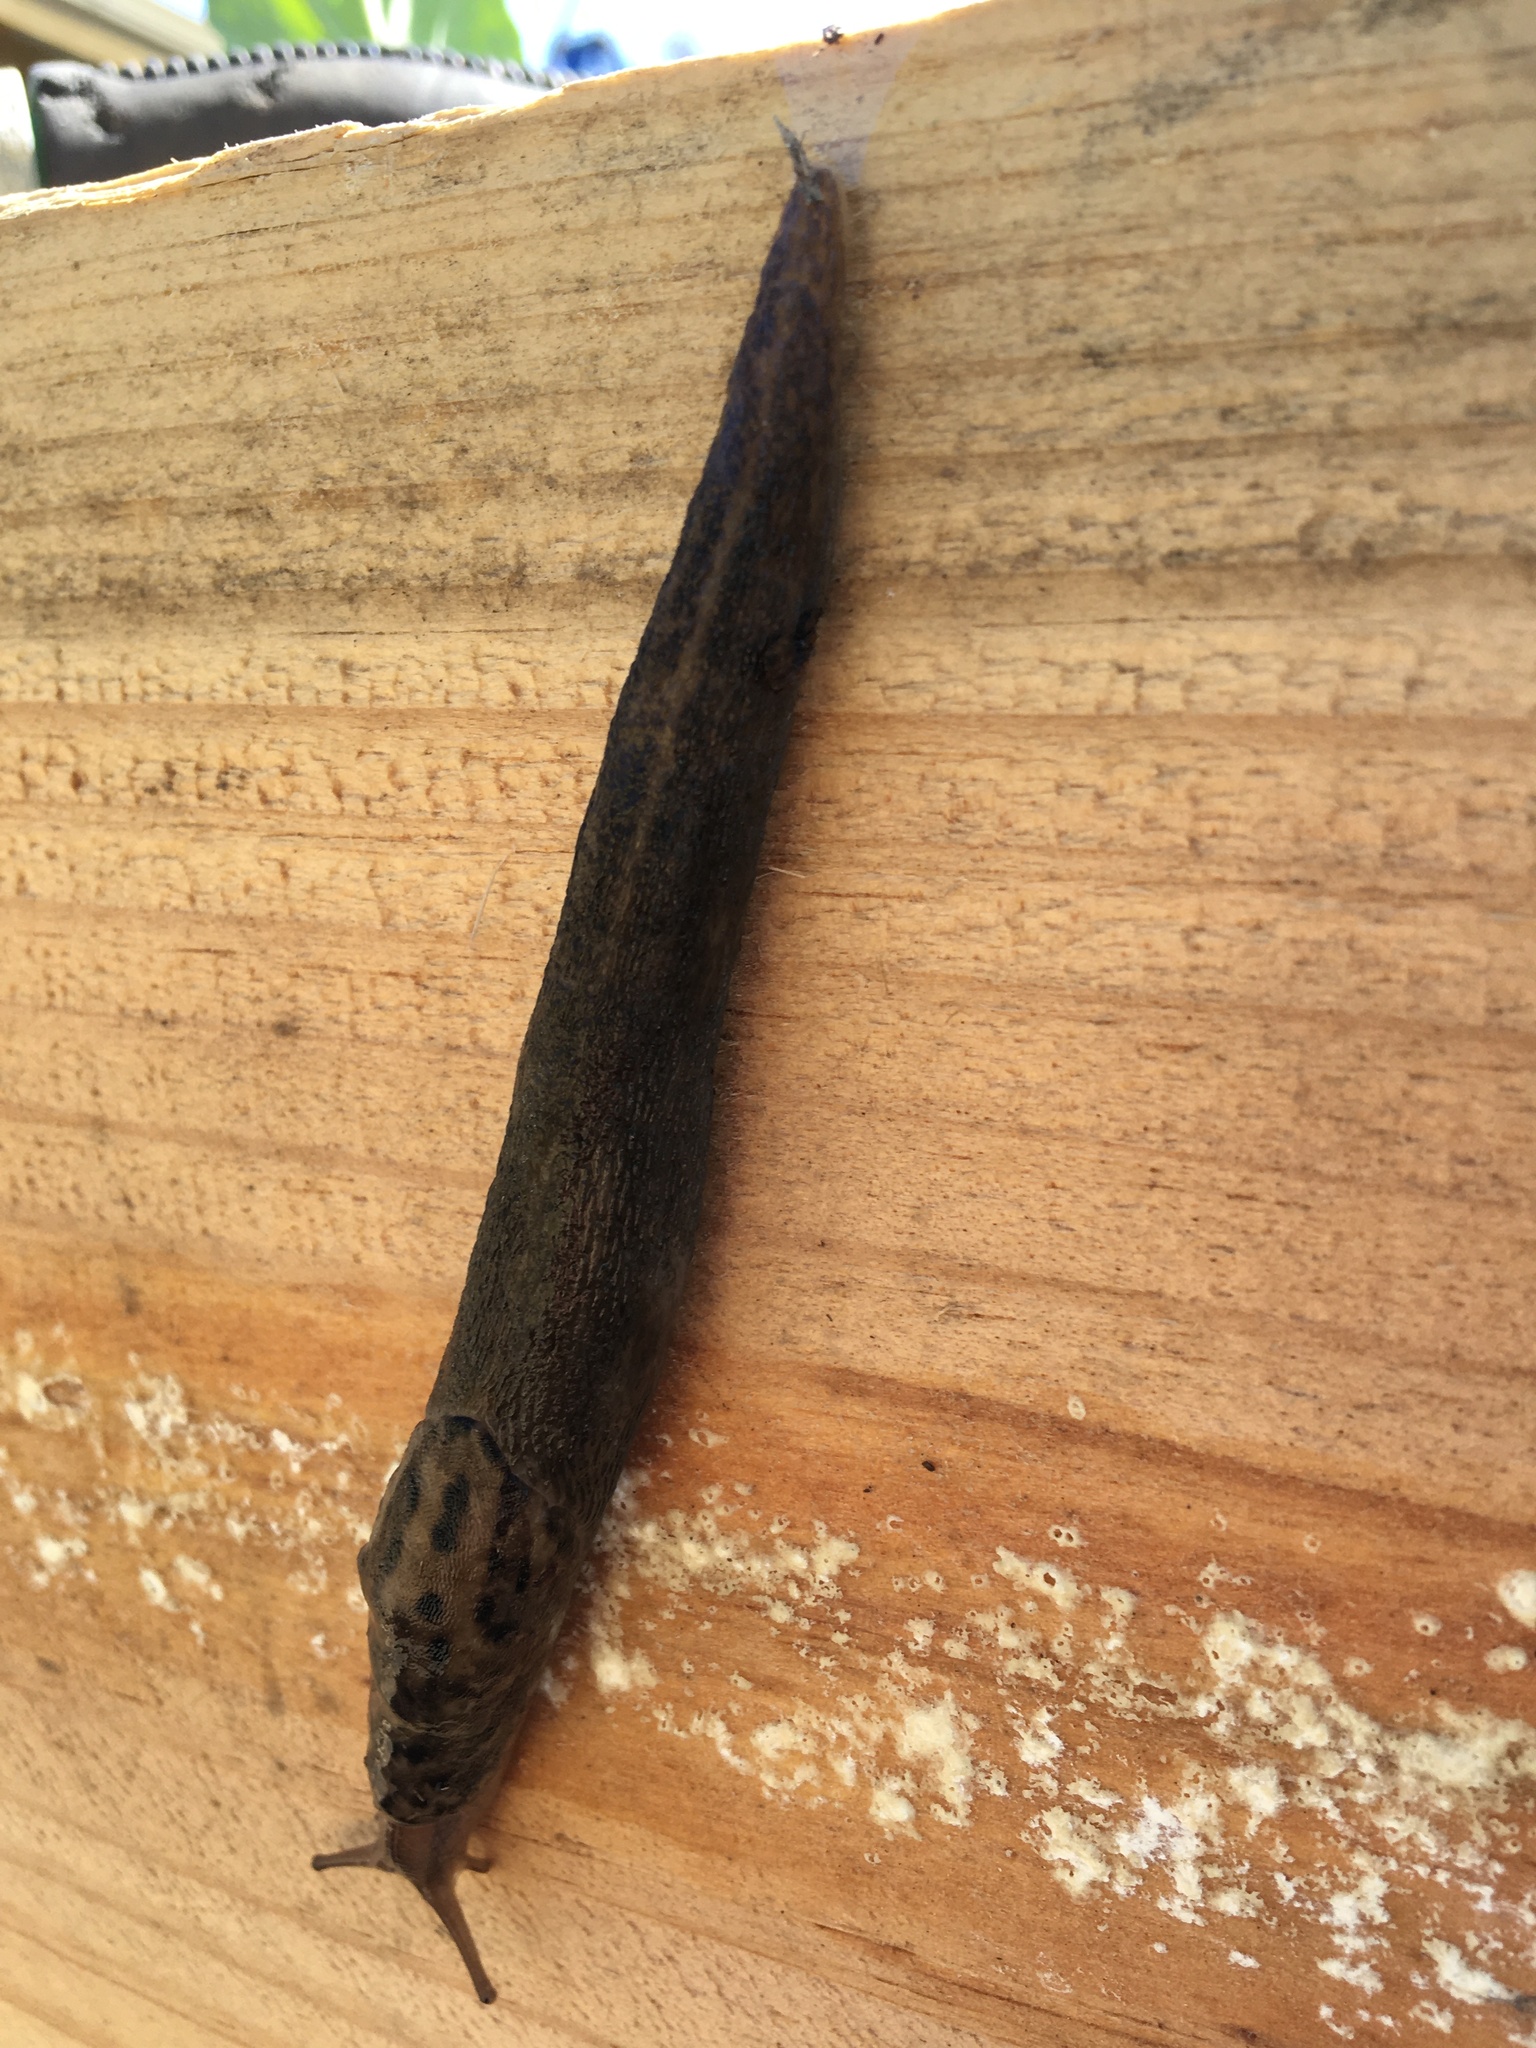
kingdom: Animalia
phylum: Mollusca
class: Gastropoda
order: Stylommatophora
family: Limacidae
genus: Limax
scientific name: Limax maximus
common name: Great grey slug
